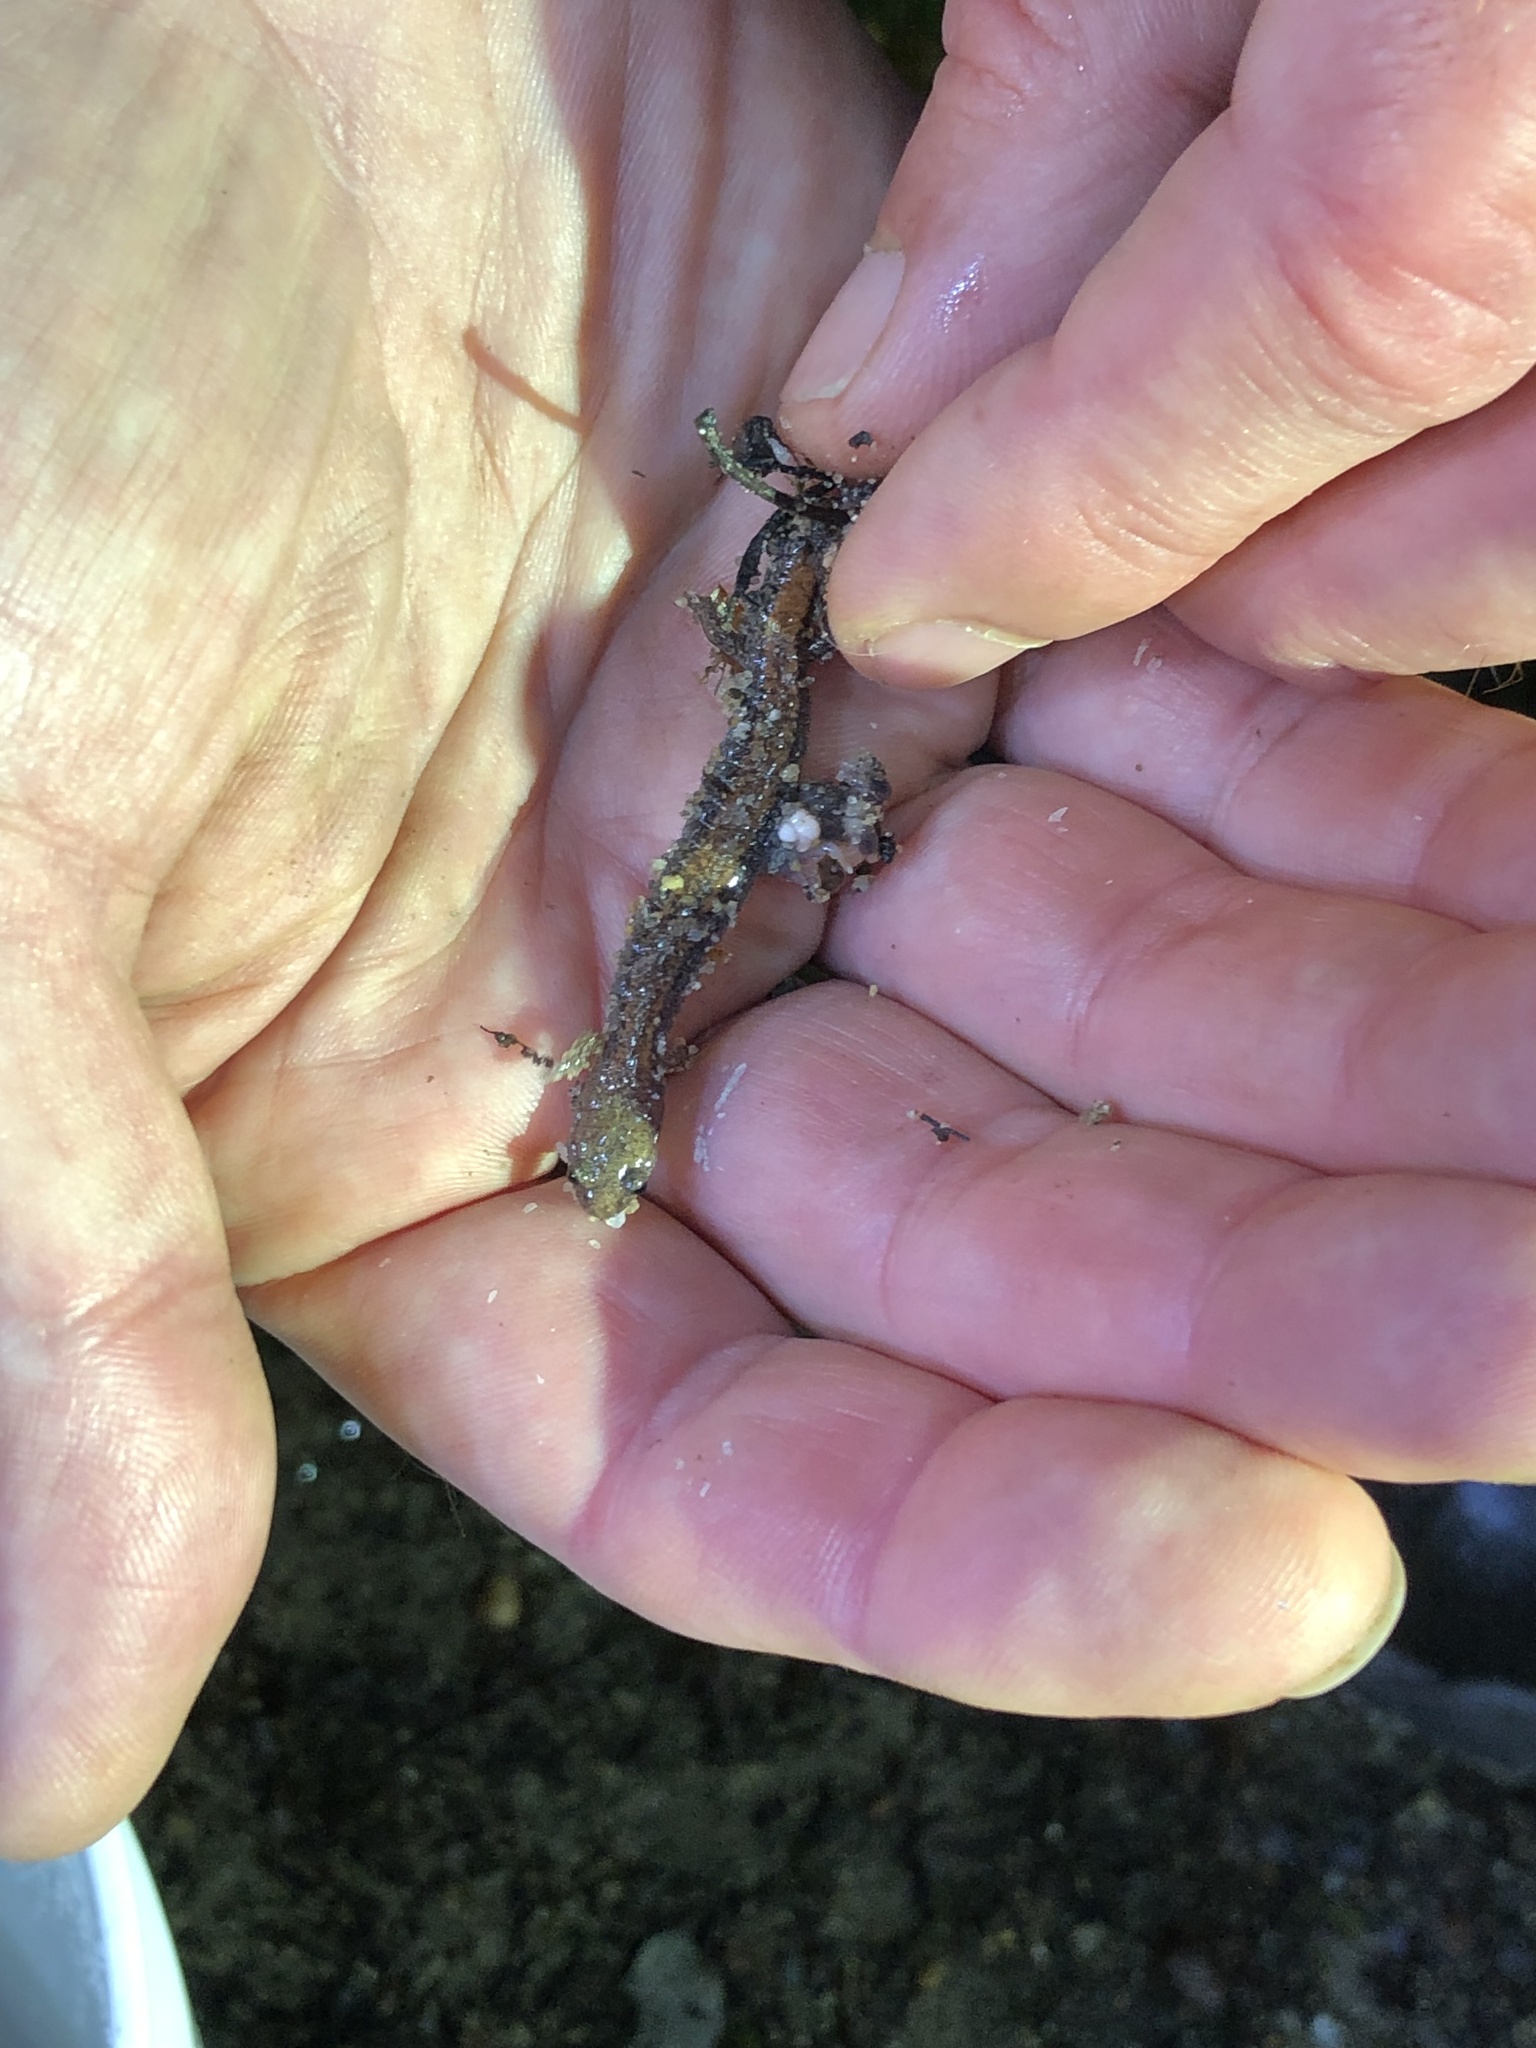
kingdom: Animalia
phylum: Chordata
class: Amphibia
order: Caudata
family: Plethodontidae
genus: Plethodon
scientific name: Plethodon cinereus
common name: Redback salamander
